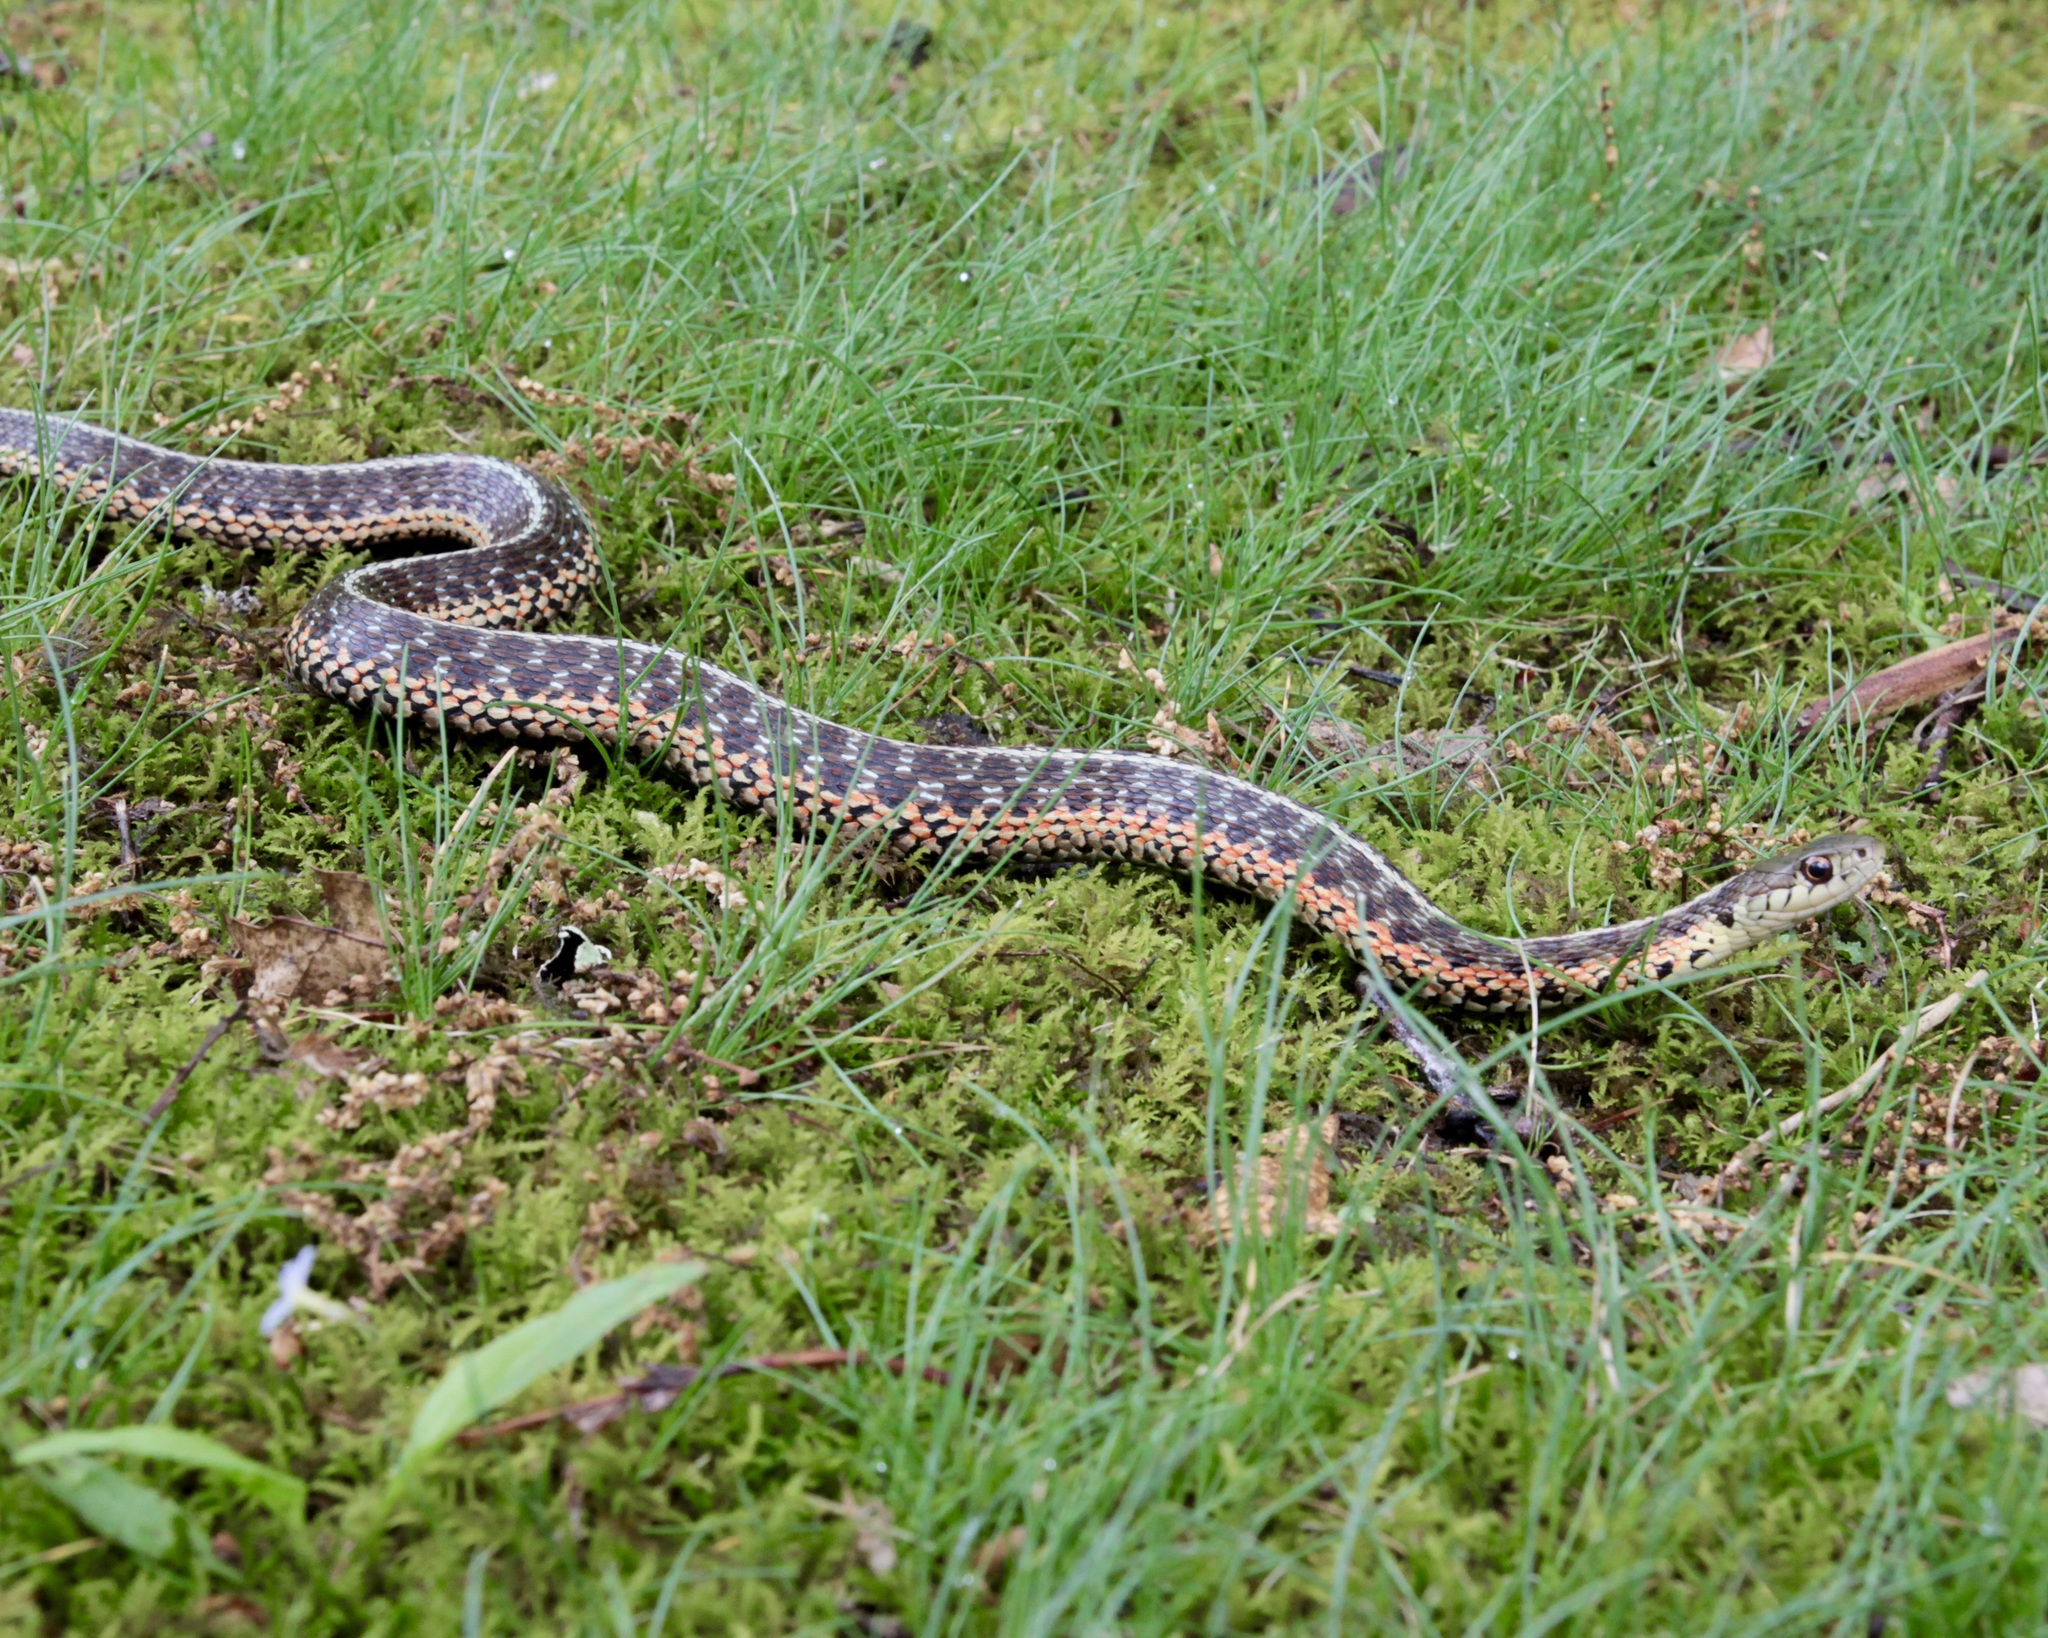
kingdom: Animalia
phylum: Chordata
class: Squamata
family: Colubridae
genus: Thamnophis
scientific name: Thamnophis sirtalis
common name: Common garter snake
